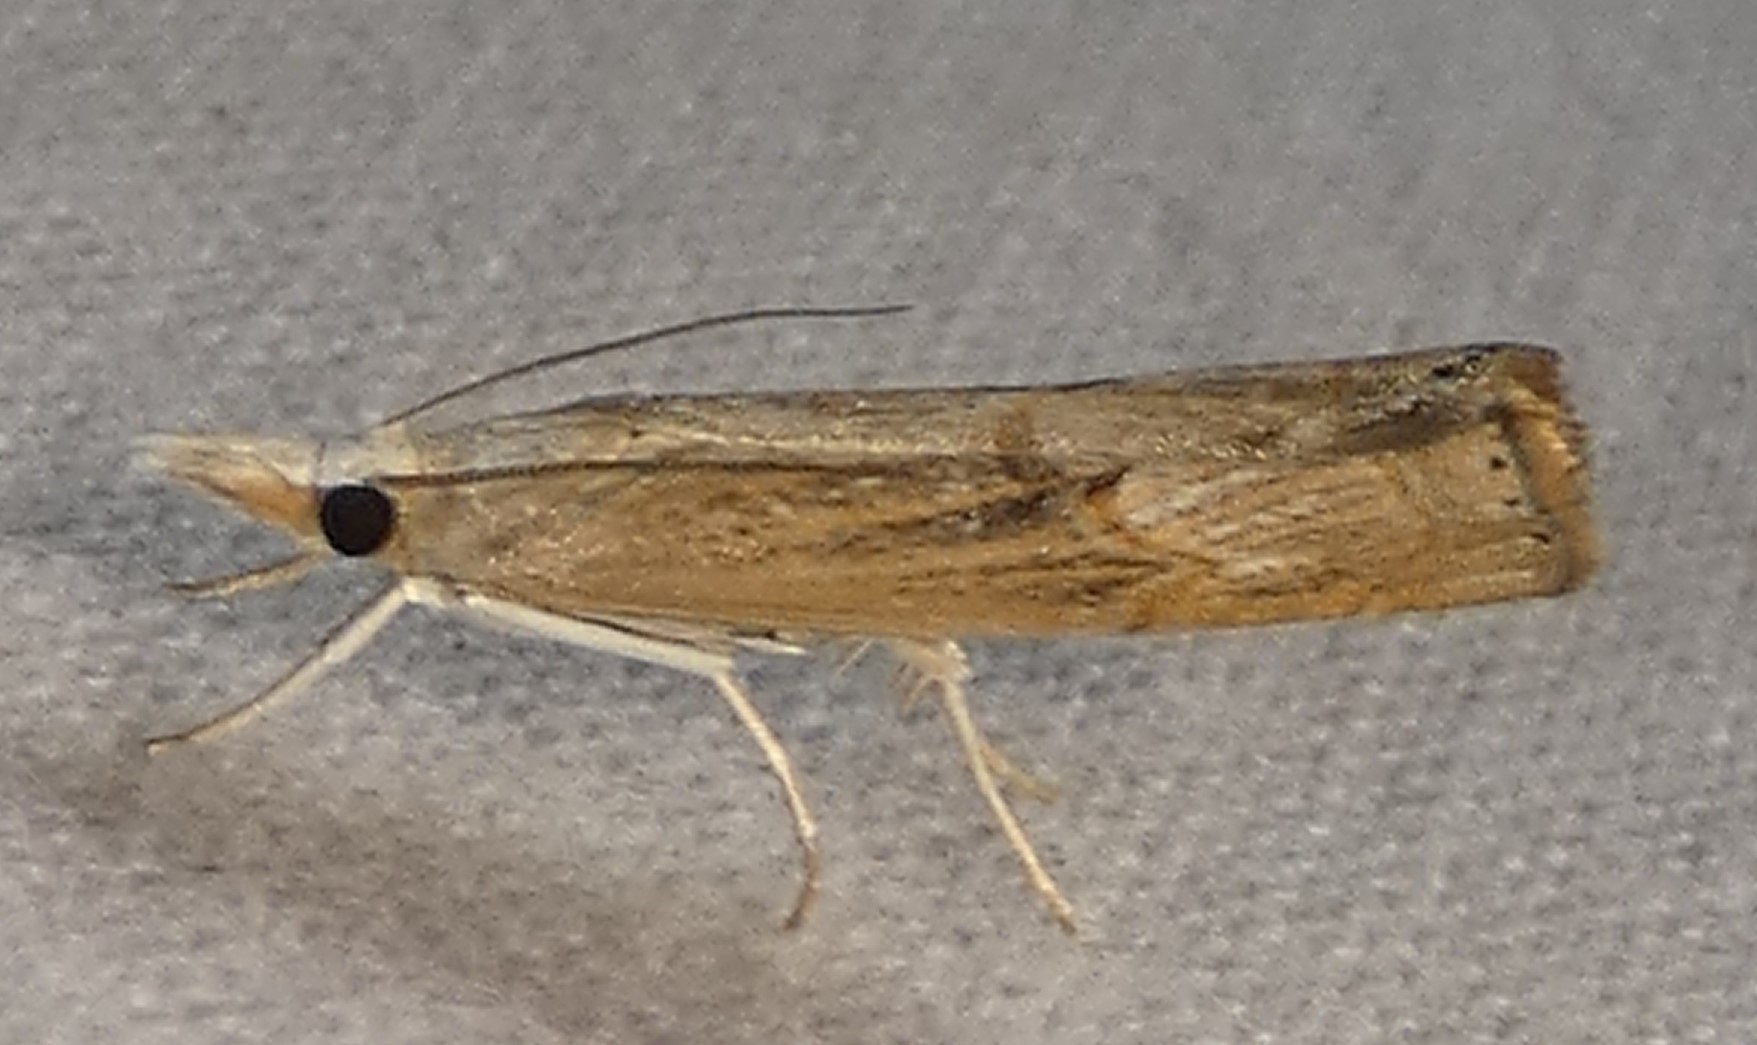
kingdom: Animalia
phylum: Arthropoda
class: Insecta
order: Lepidoptera
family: Crambidae
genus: Parapediasia
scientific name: Parapediasia teterellus
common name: Bluegrass webworm moth
